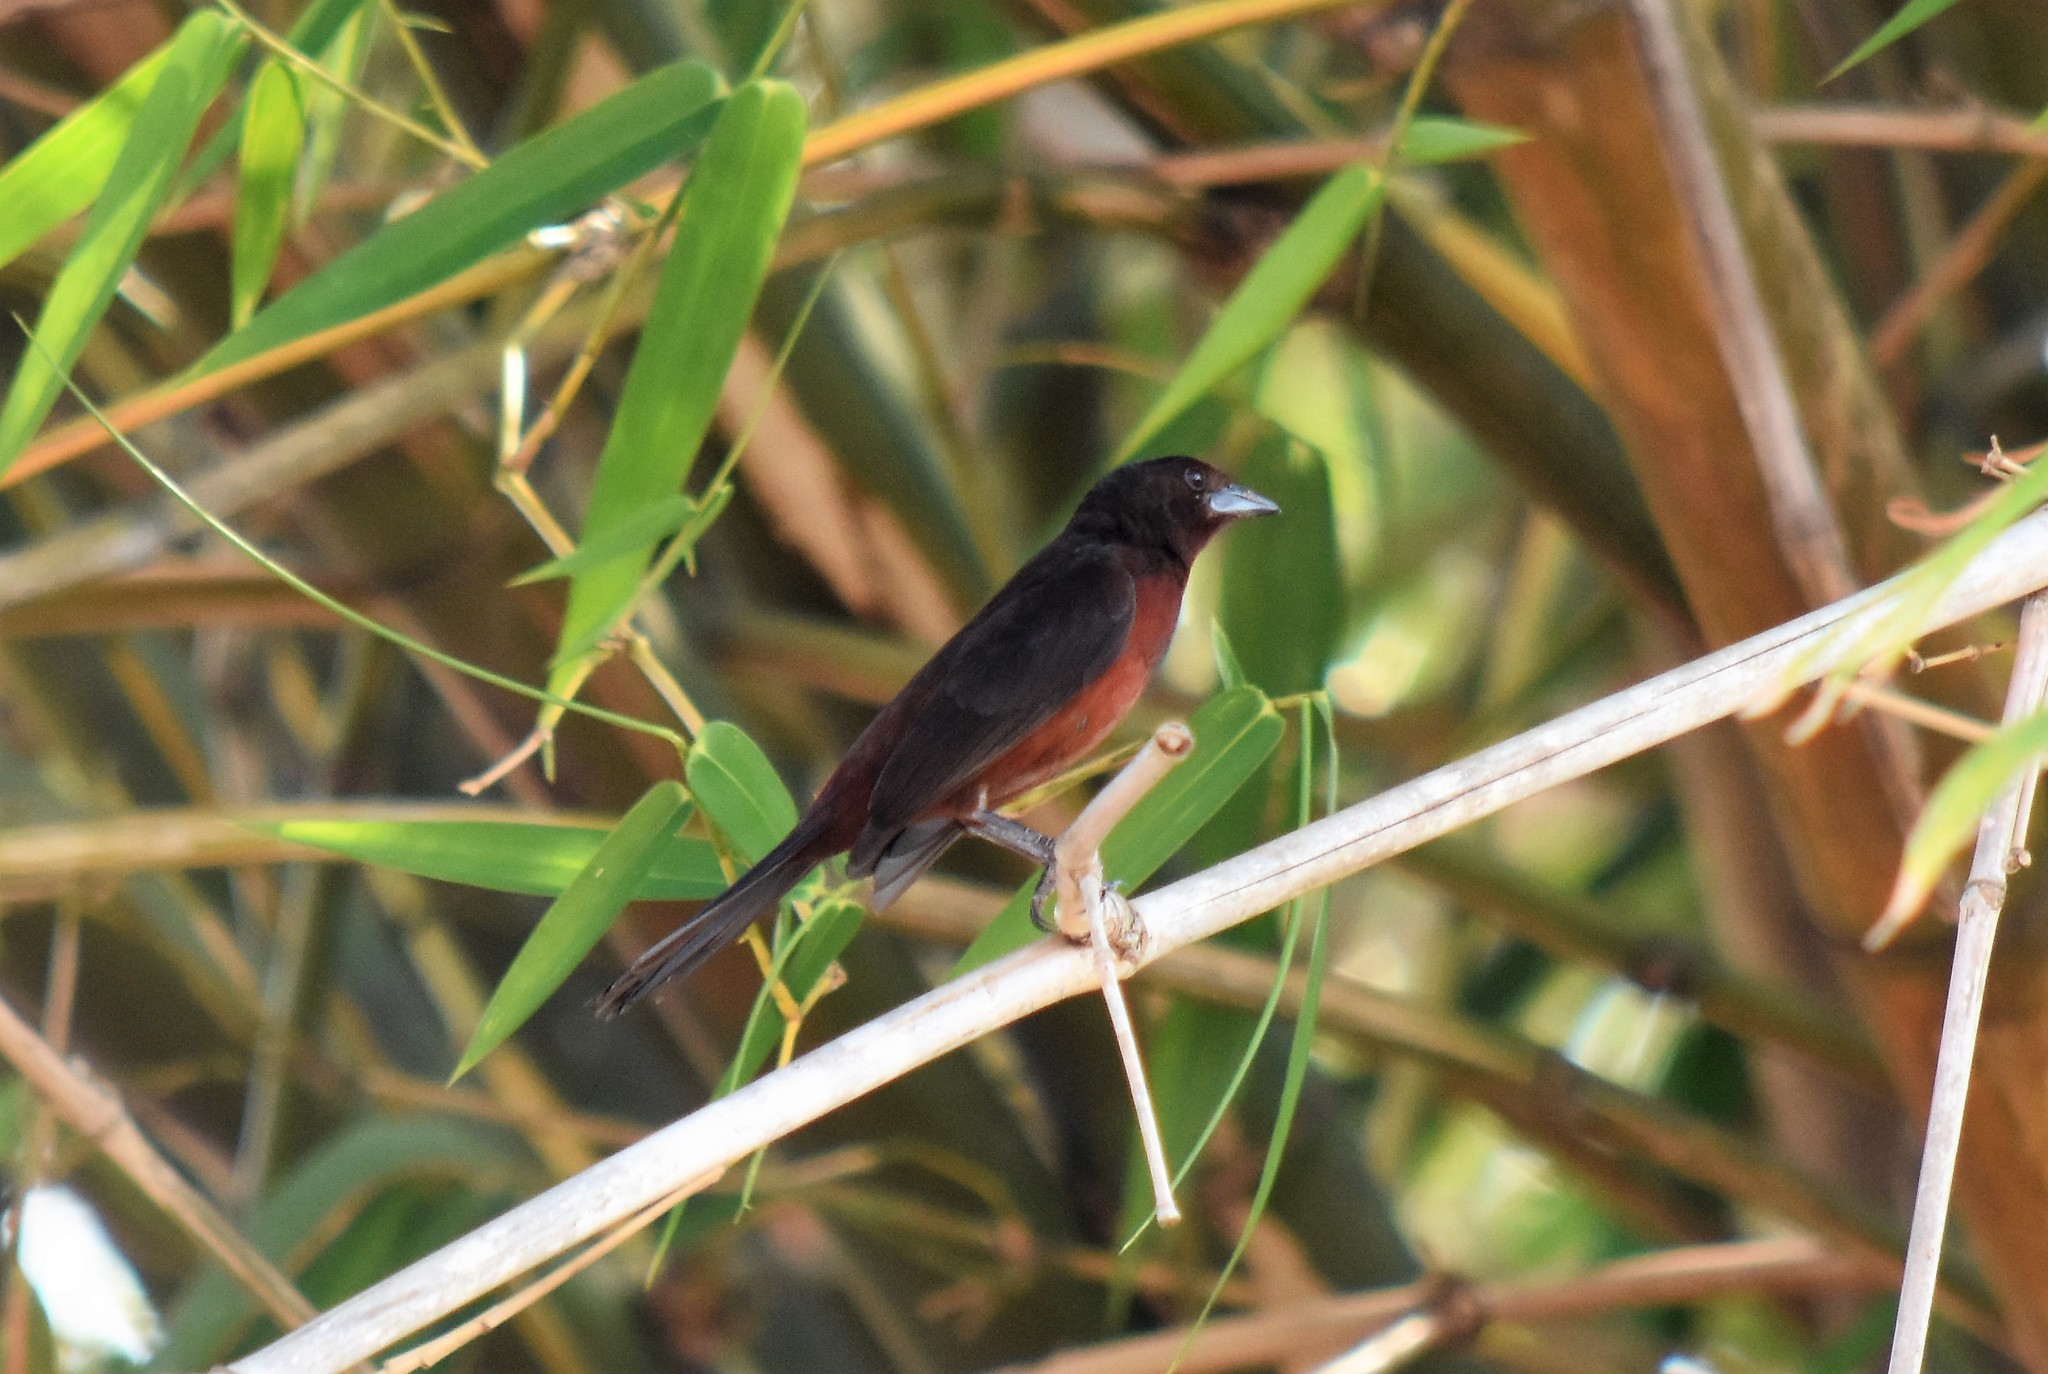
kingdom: Animalia
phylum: Chordata
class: Aves
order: Passeriformes
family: Thraupidae
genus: Ramphocelus
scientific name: Ramphocelus carbo
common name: Silver-beaked tanager
